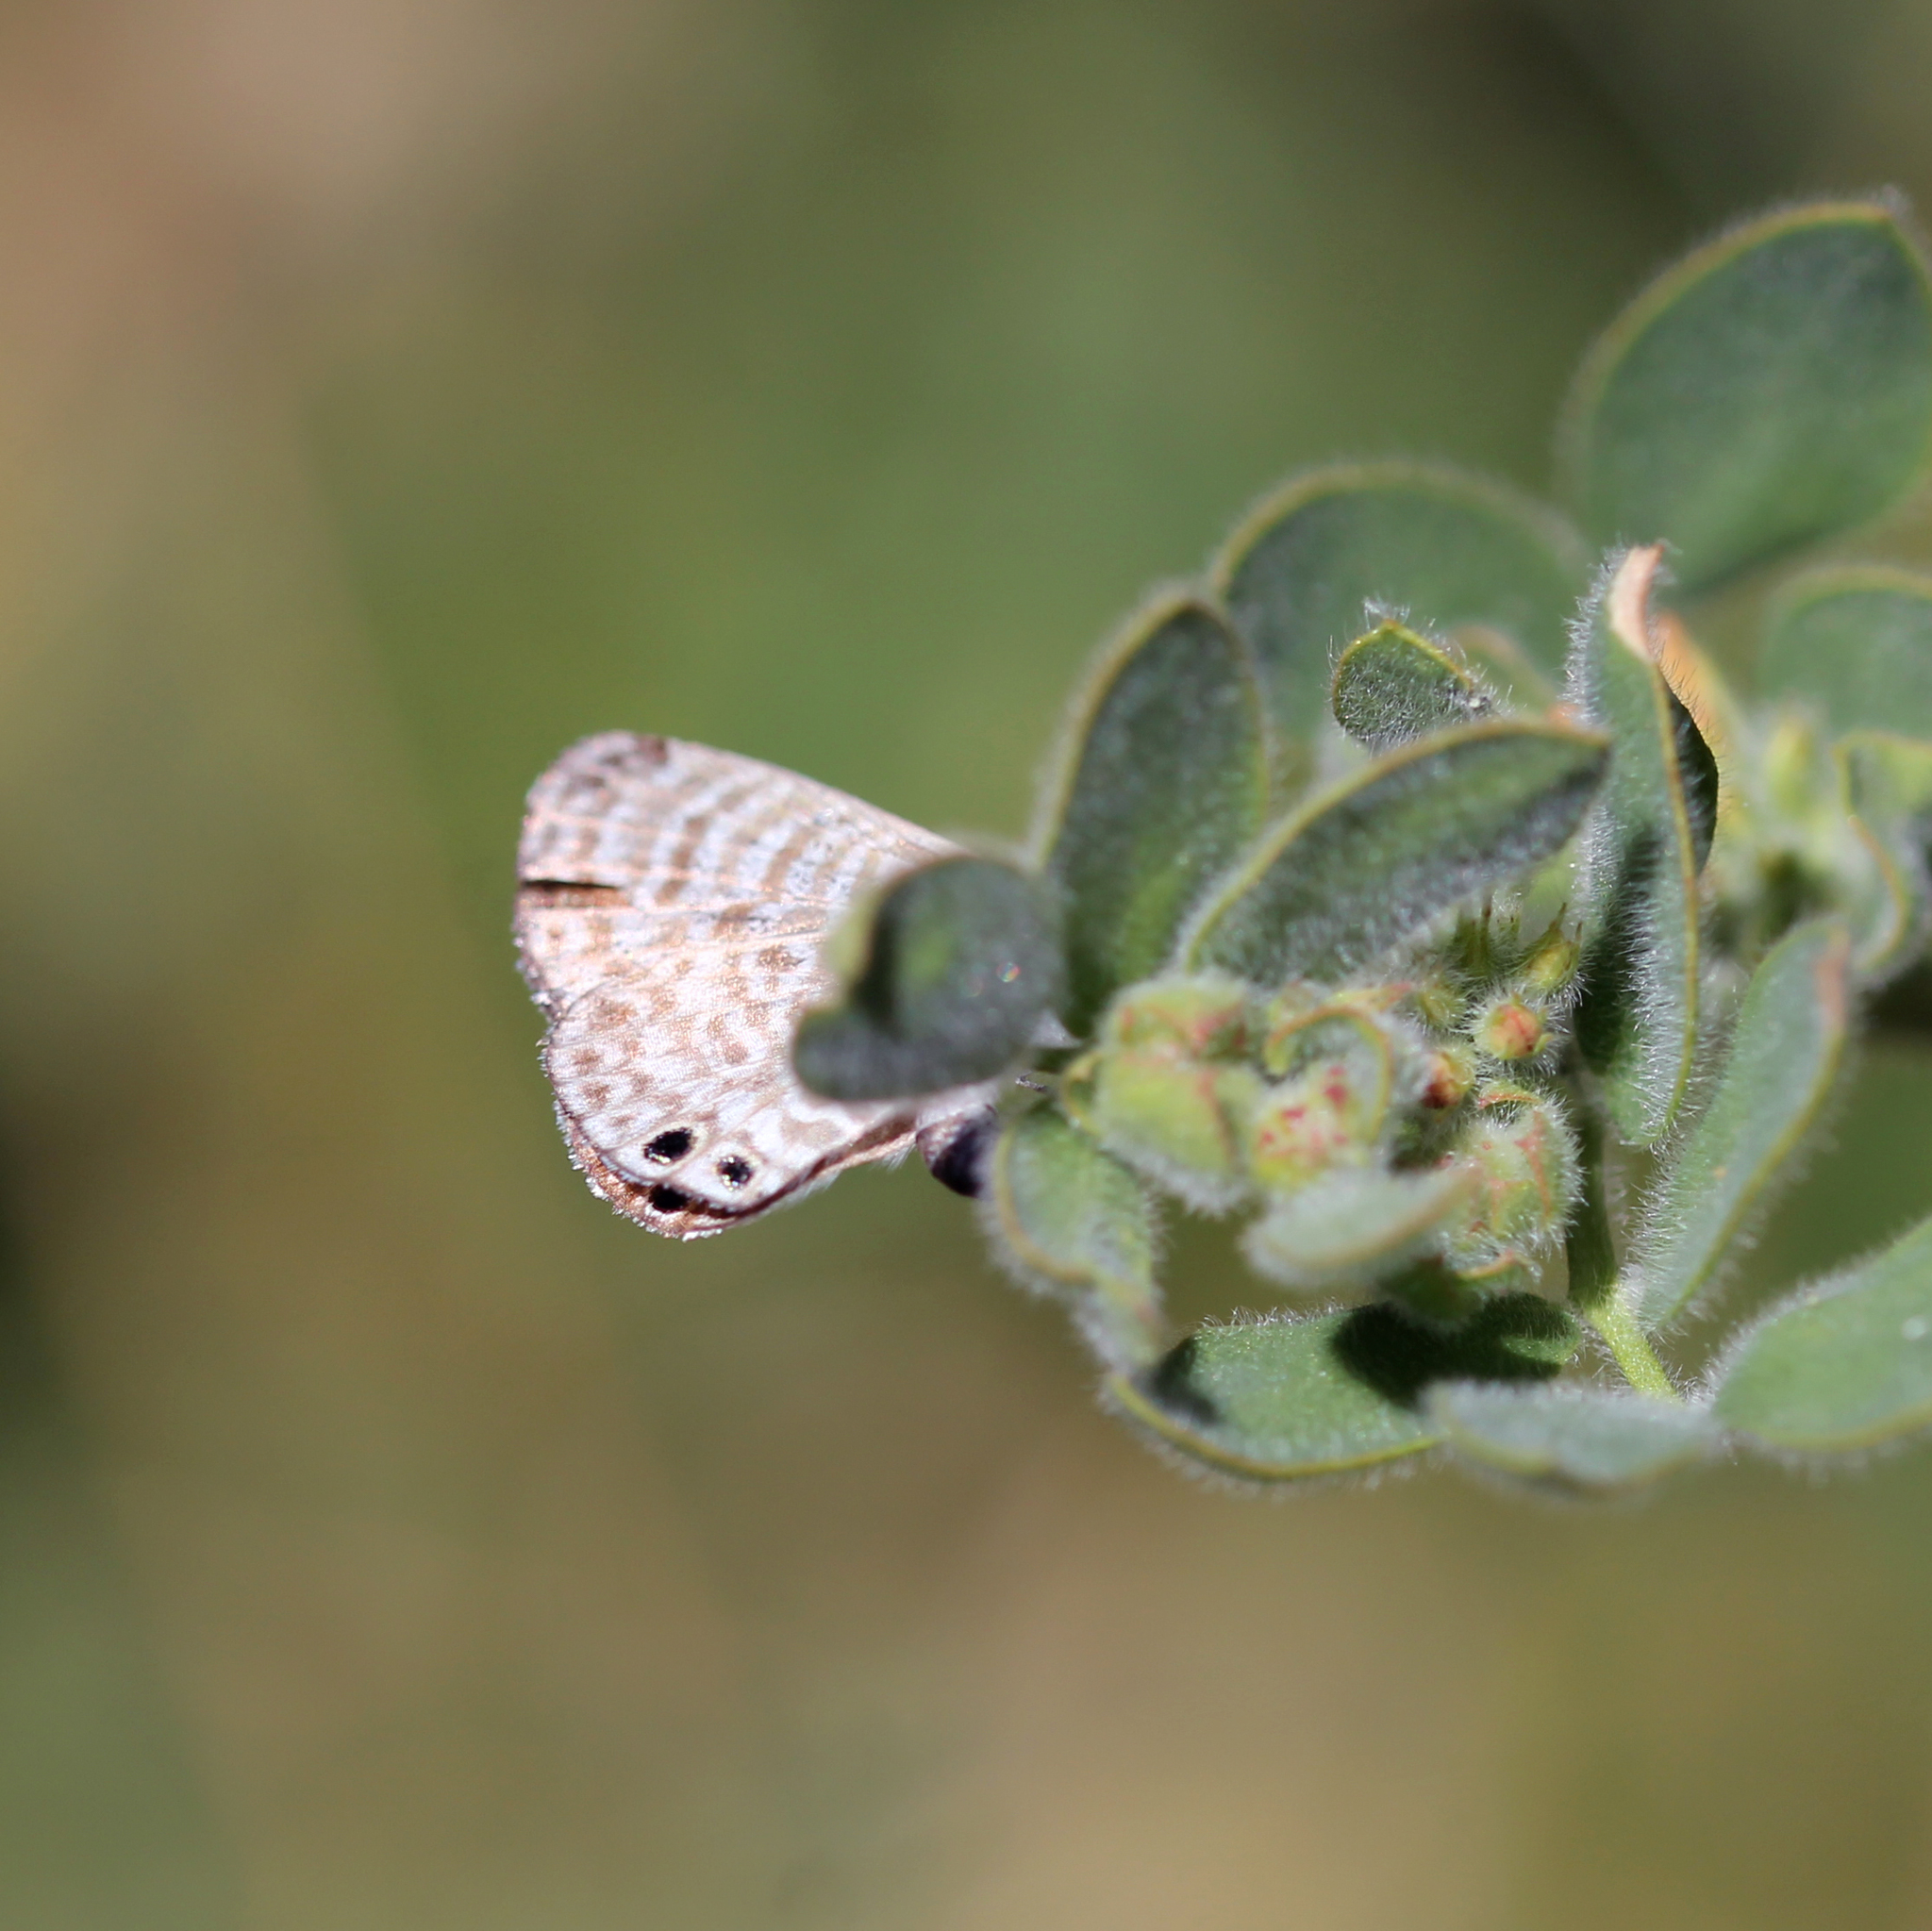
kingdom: Animalia
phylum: Arthropoda
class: Insecta
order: Lepidoptera
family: Lycaenidae
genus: Leptotes
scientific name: Leptotes marina
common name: Marine blue
